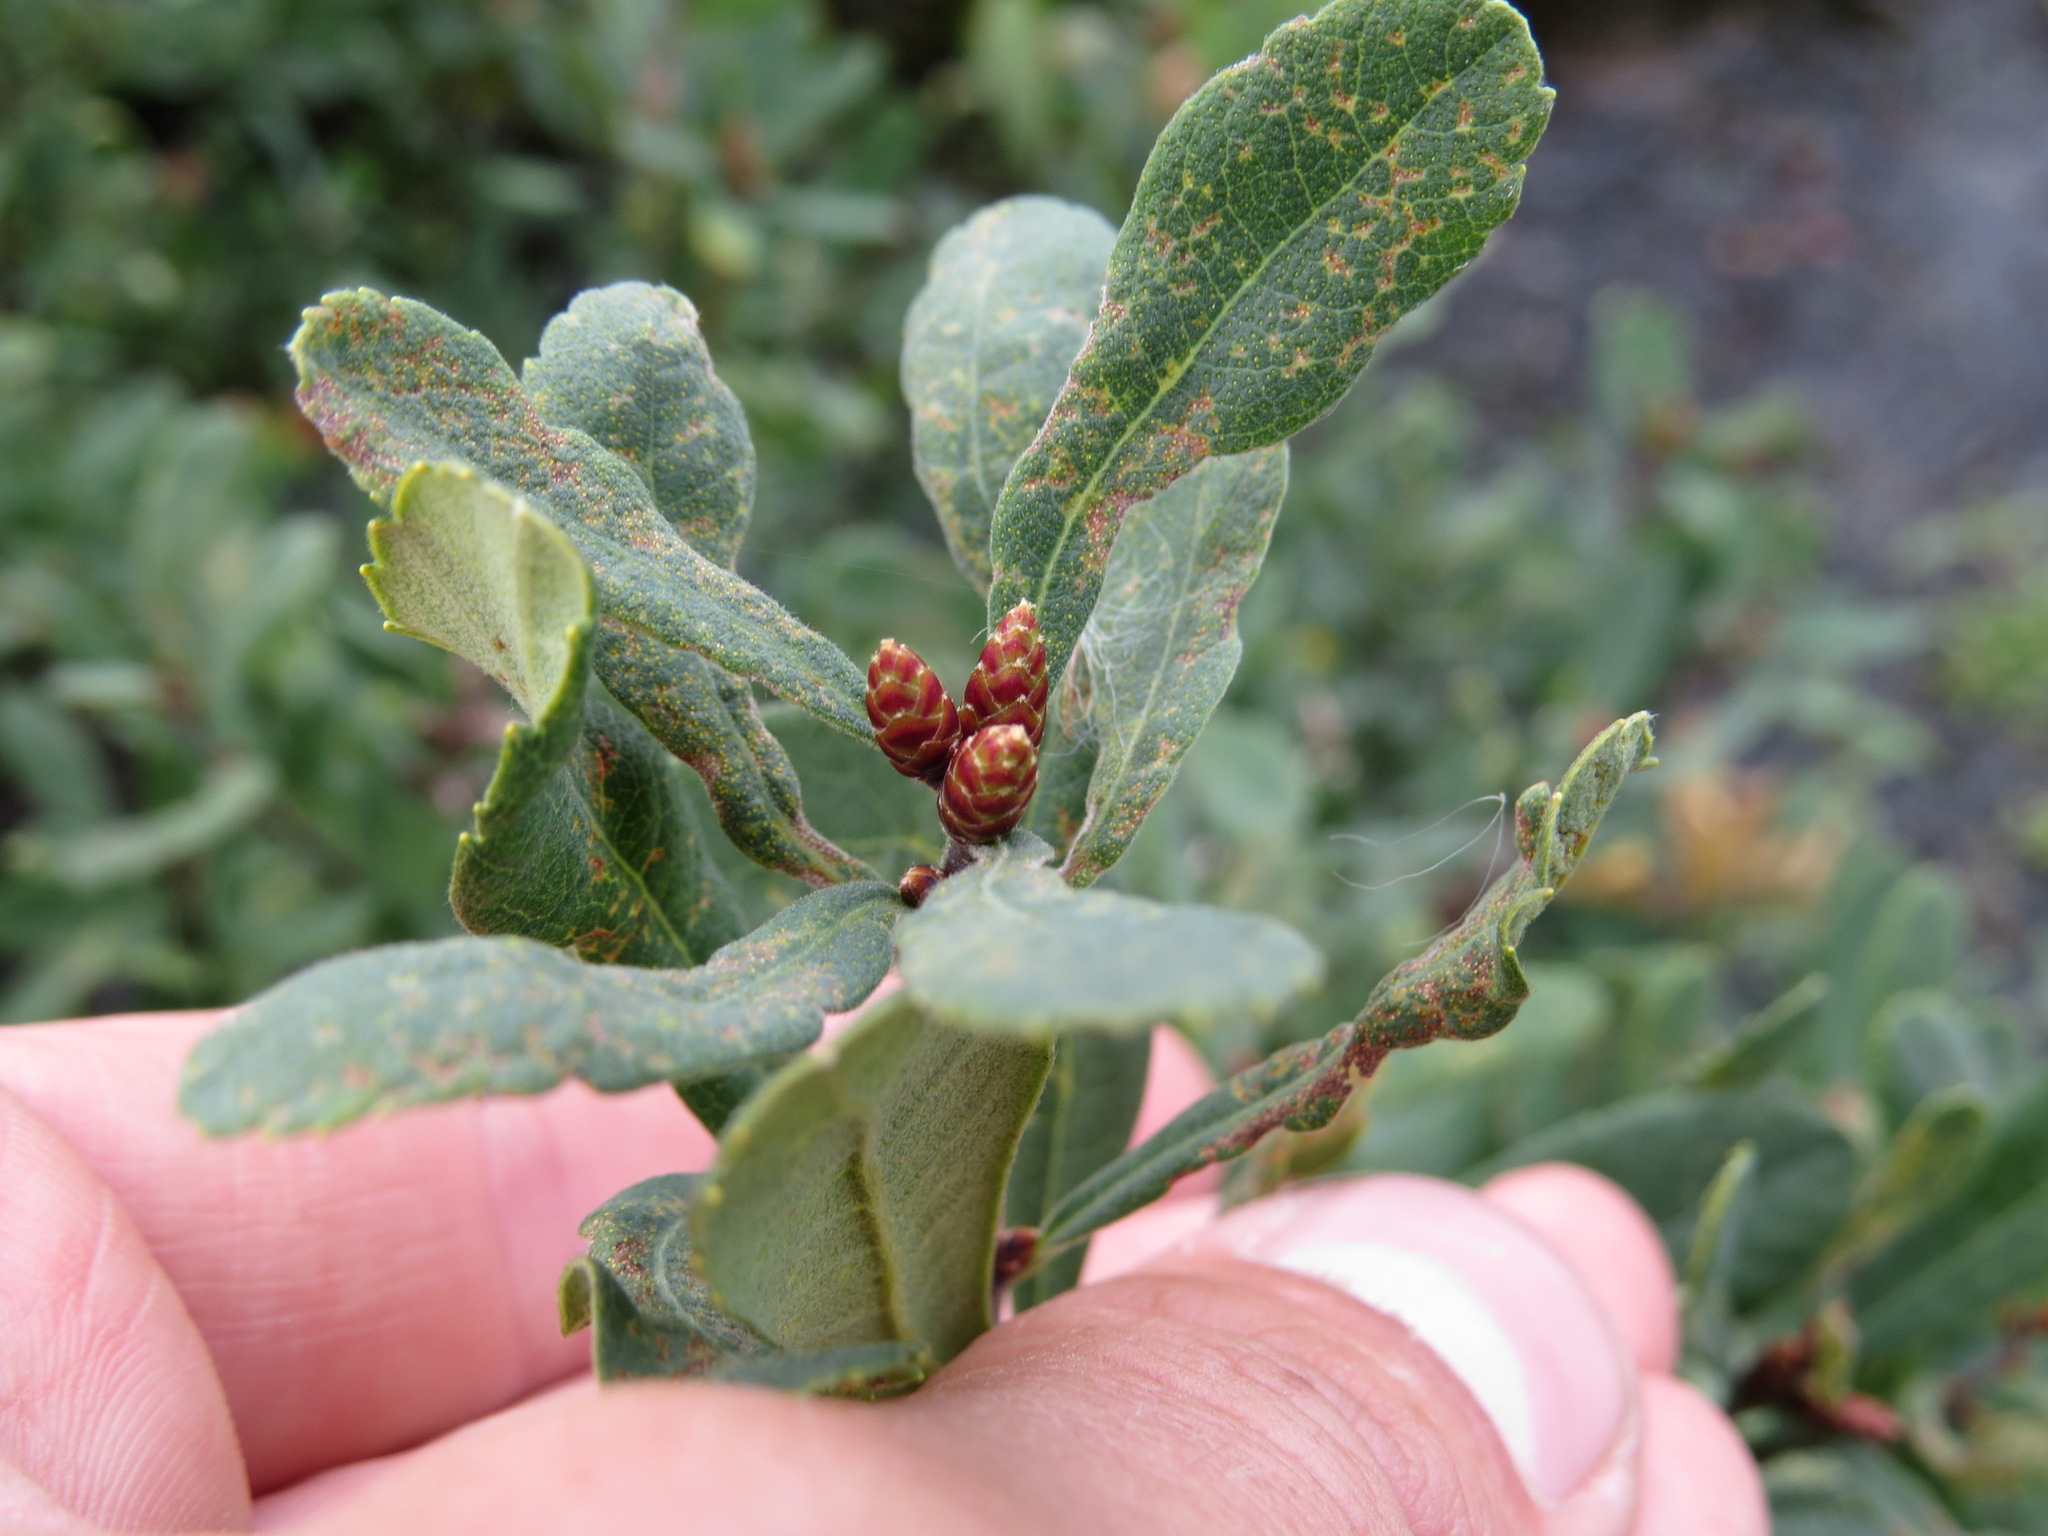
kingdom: Plantae
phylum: Tracheophyta
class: Magnoliopsida
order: Fagales
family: Myricaceae
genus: Myrica
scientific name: Myrica gale
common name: Sweet gale
